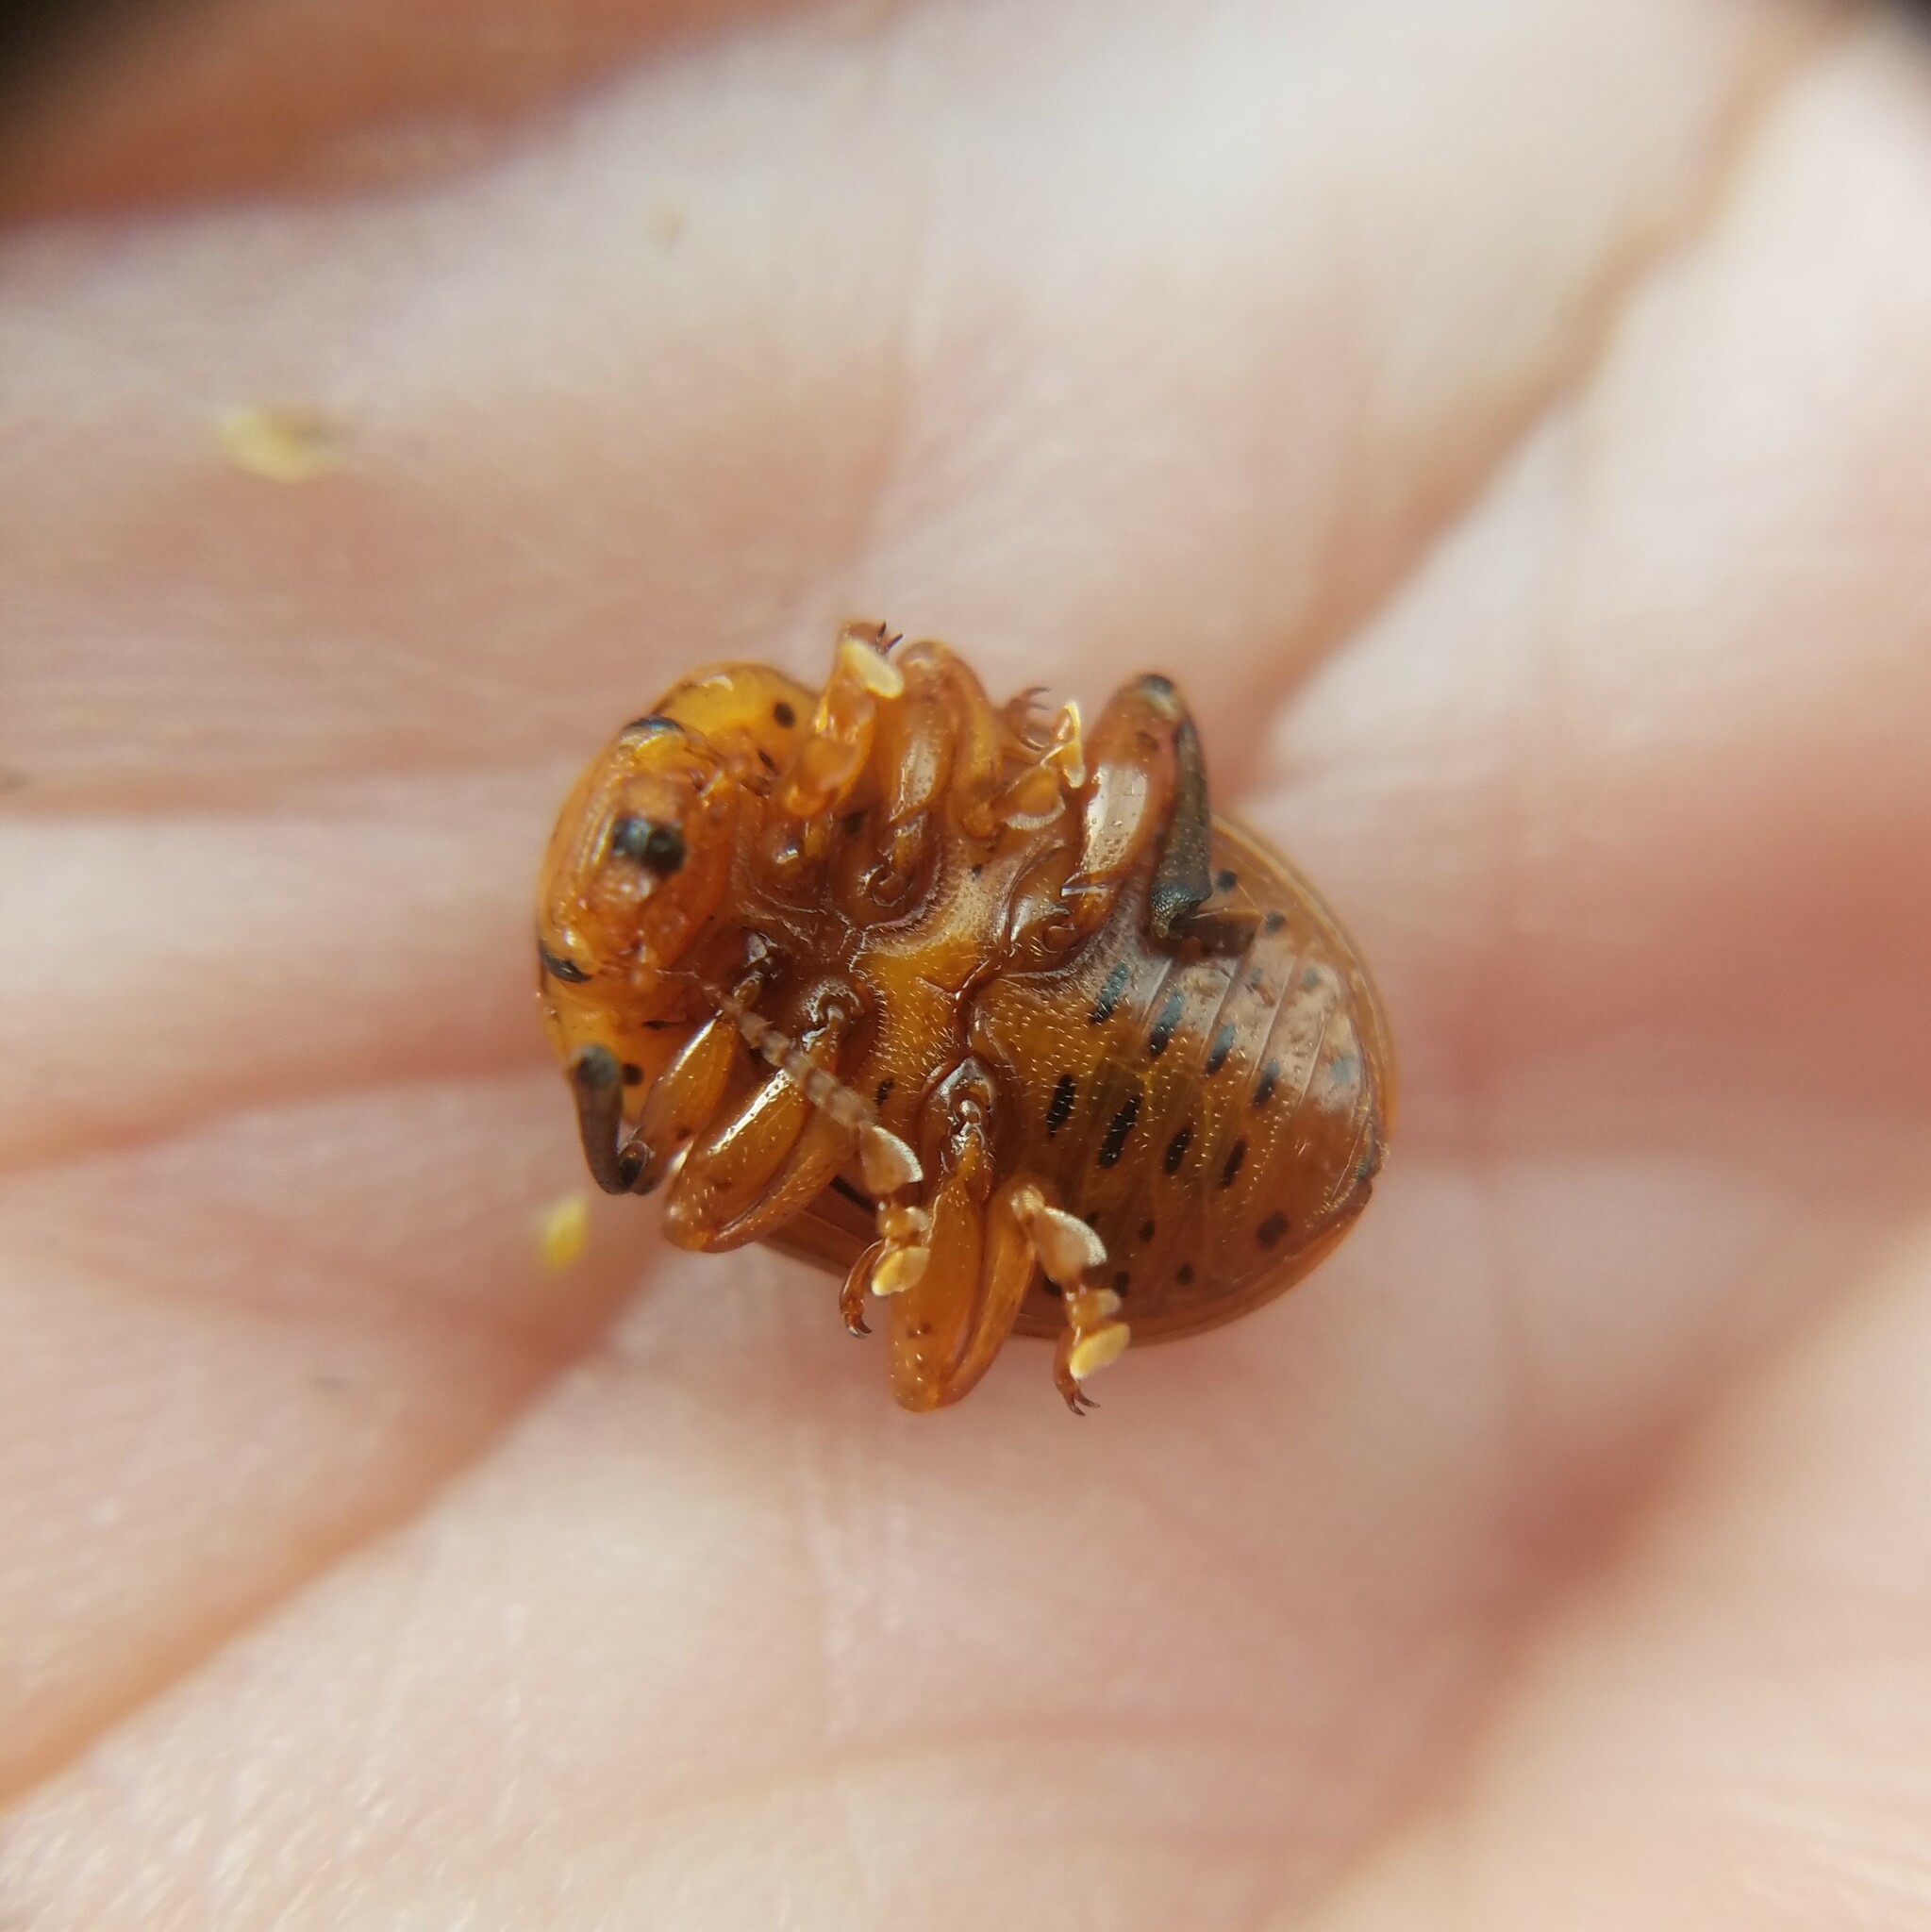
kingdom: Animalia
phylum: Arthropoda
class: Insecta
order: Coleoptera
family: Chrysomelidae
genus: Leptinotarsa
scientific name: Leptinotarsa juncta
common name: False potato beetle
